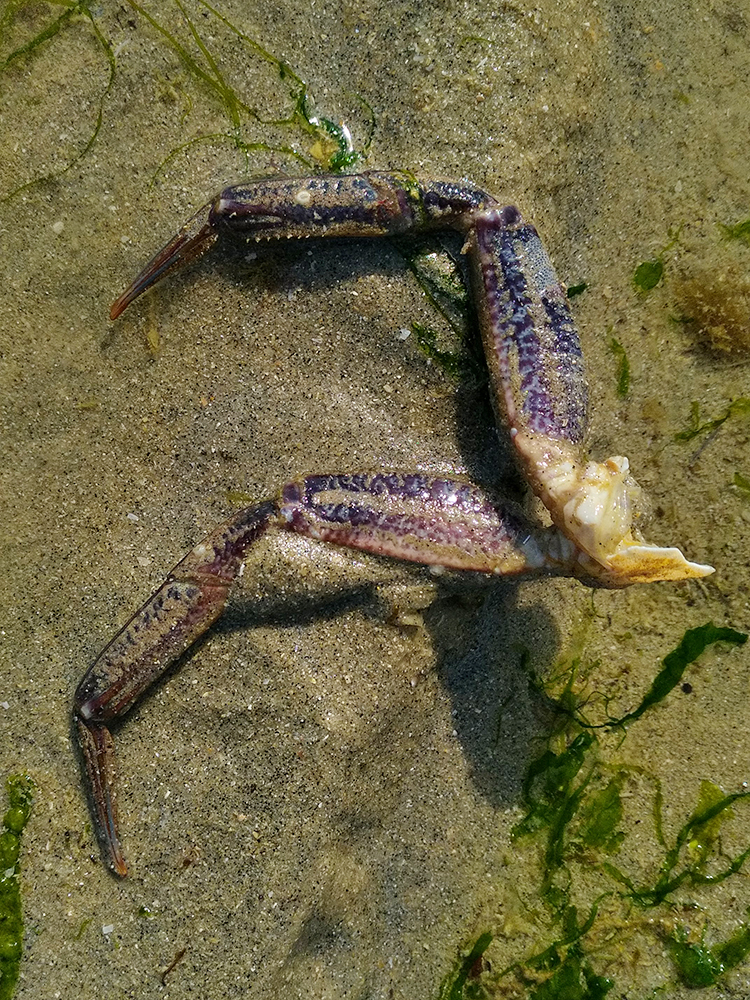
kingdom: Animalia
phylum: Arthropoda
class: Malacostraca
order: Decapoda
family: Polybiidae
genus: Necora
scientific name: Necora puber
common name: Velvet swimming crab
